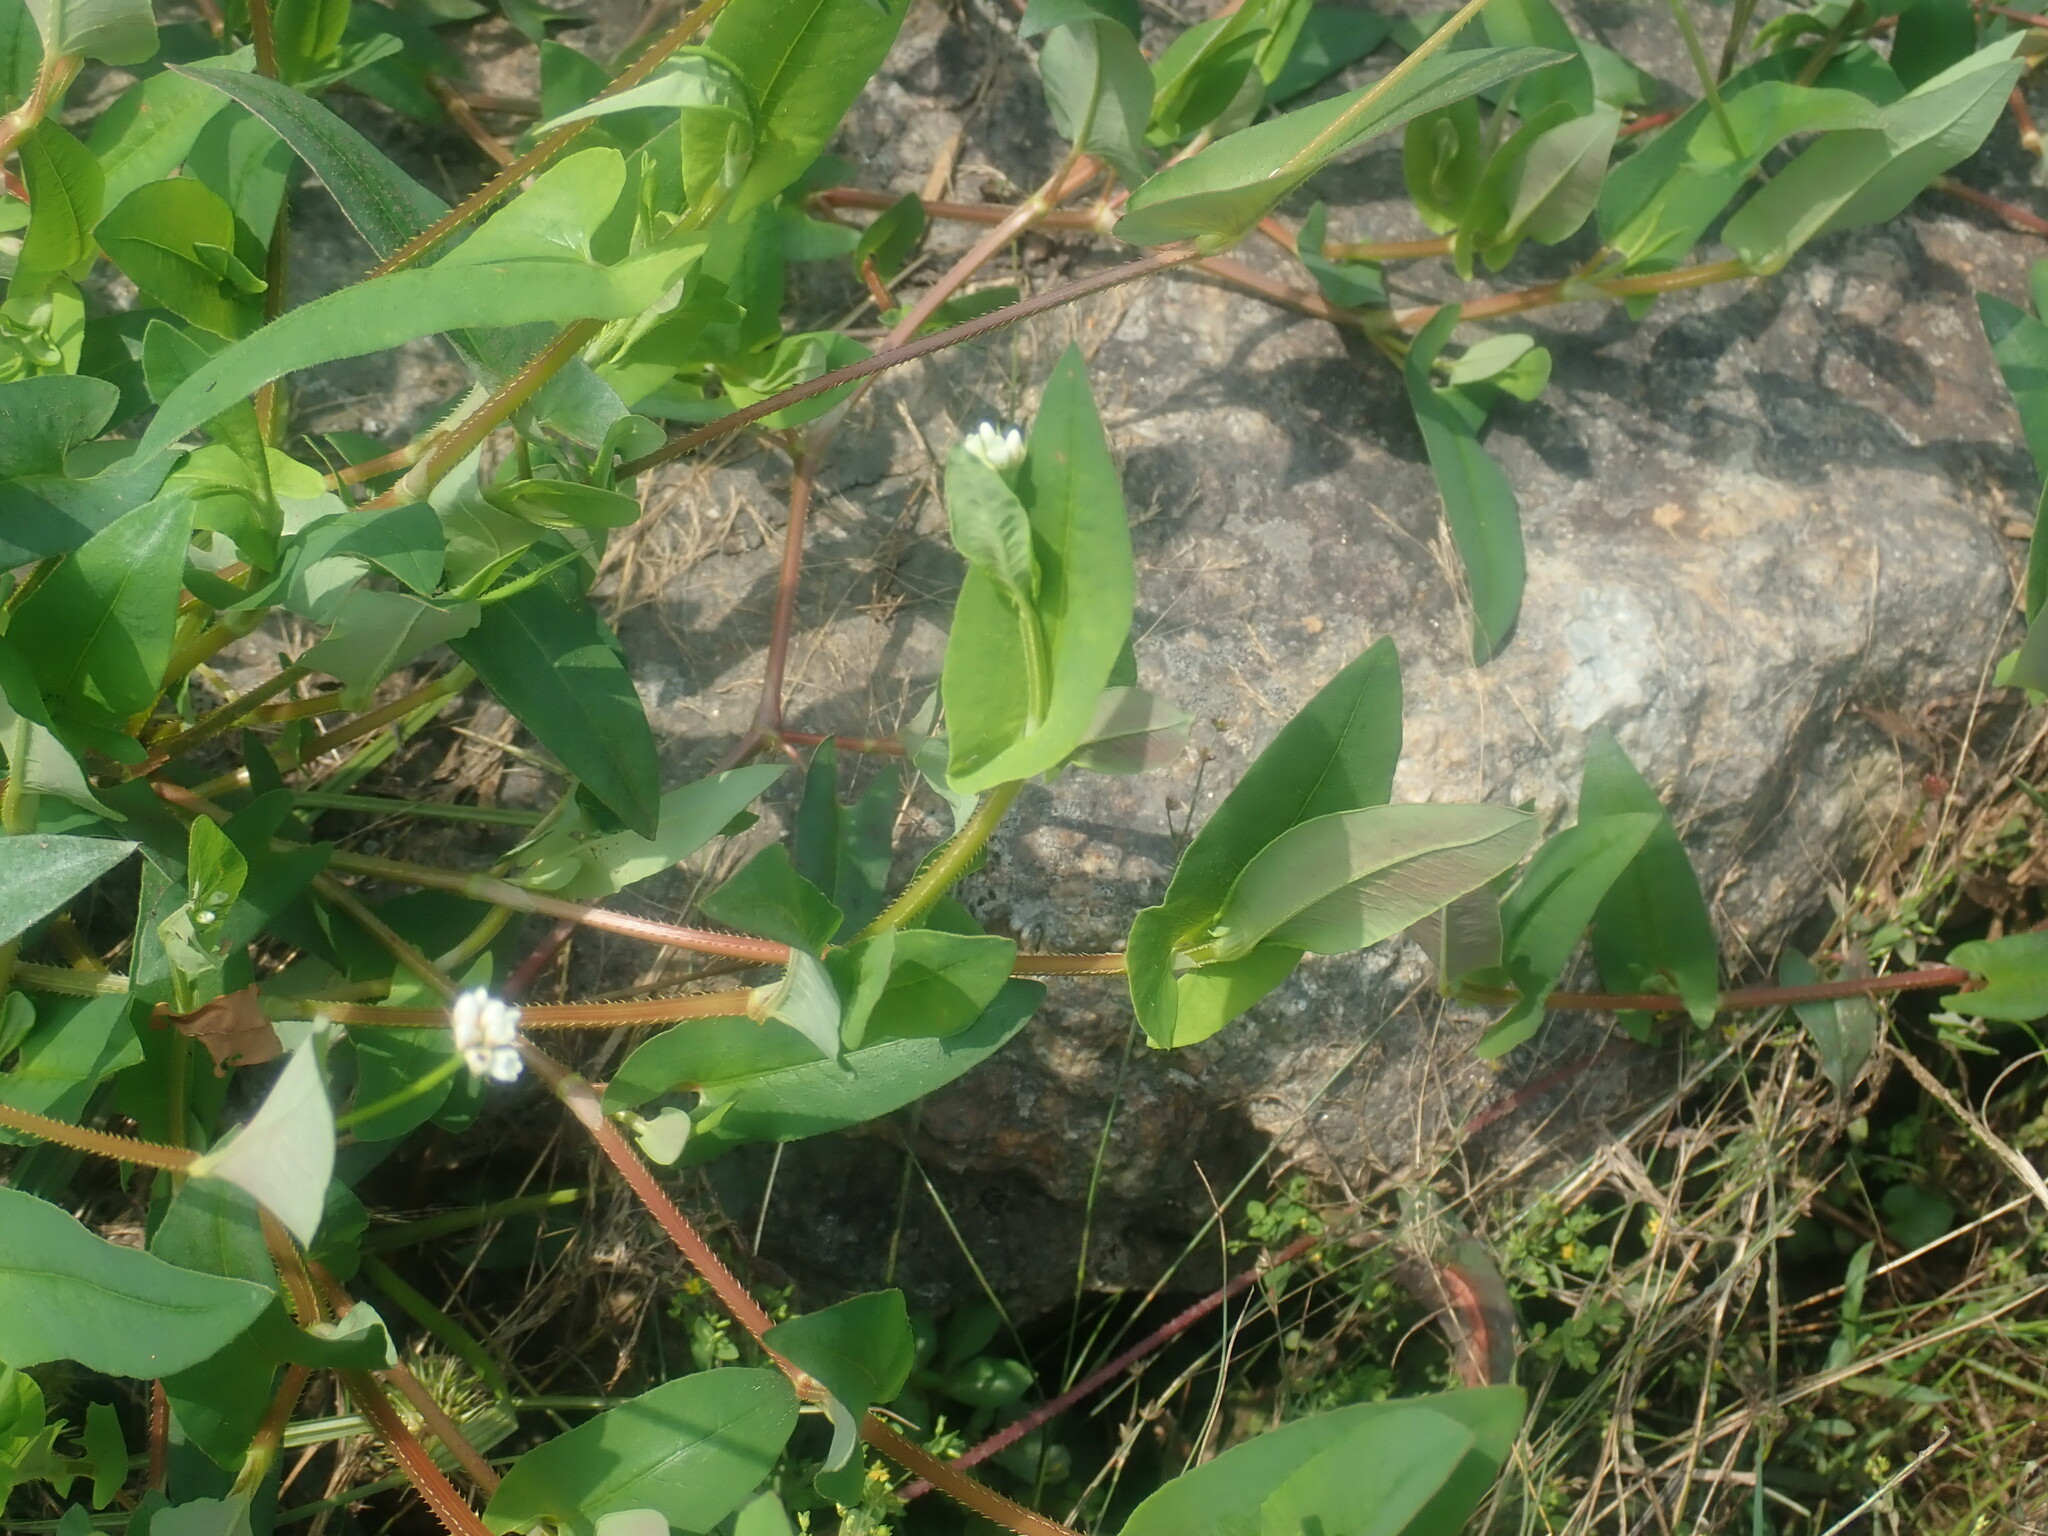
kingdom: Plantae
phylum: Tracheophyta
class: Magnoliopsida
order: Caryophyllales
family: Polygonaceae
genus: Persicaria
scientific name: Persicaria sagittata
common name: American tearthumb
